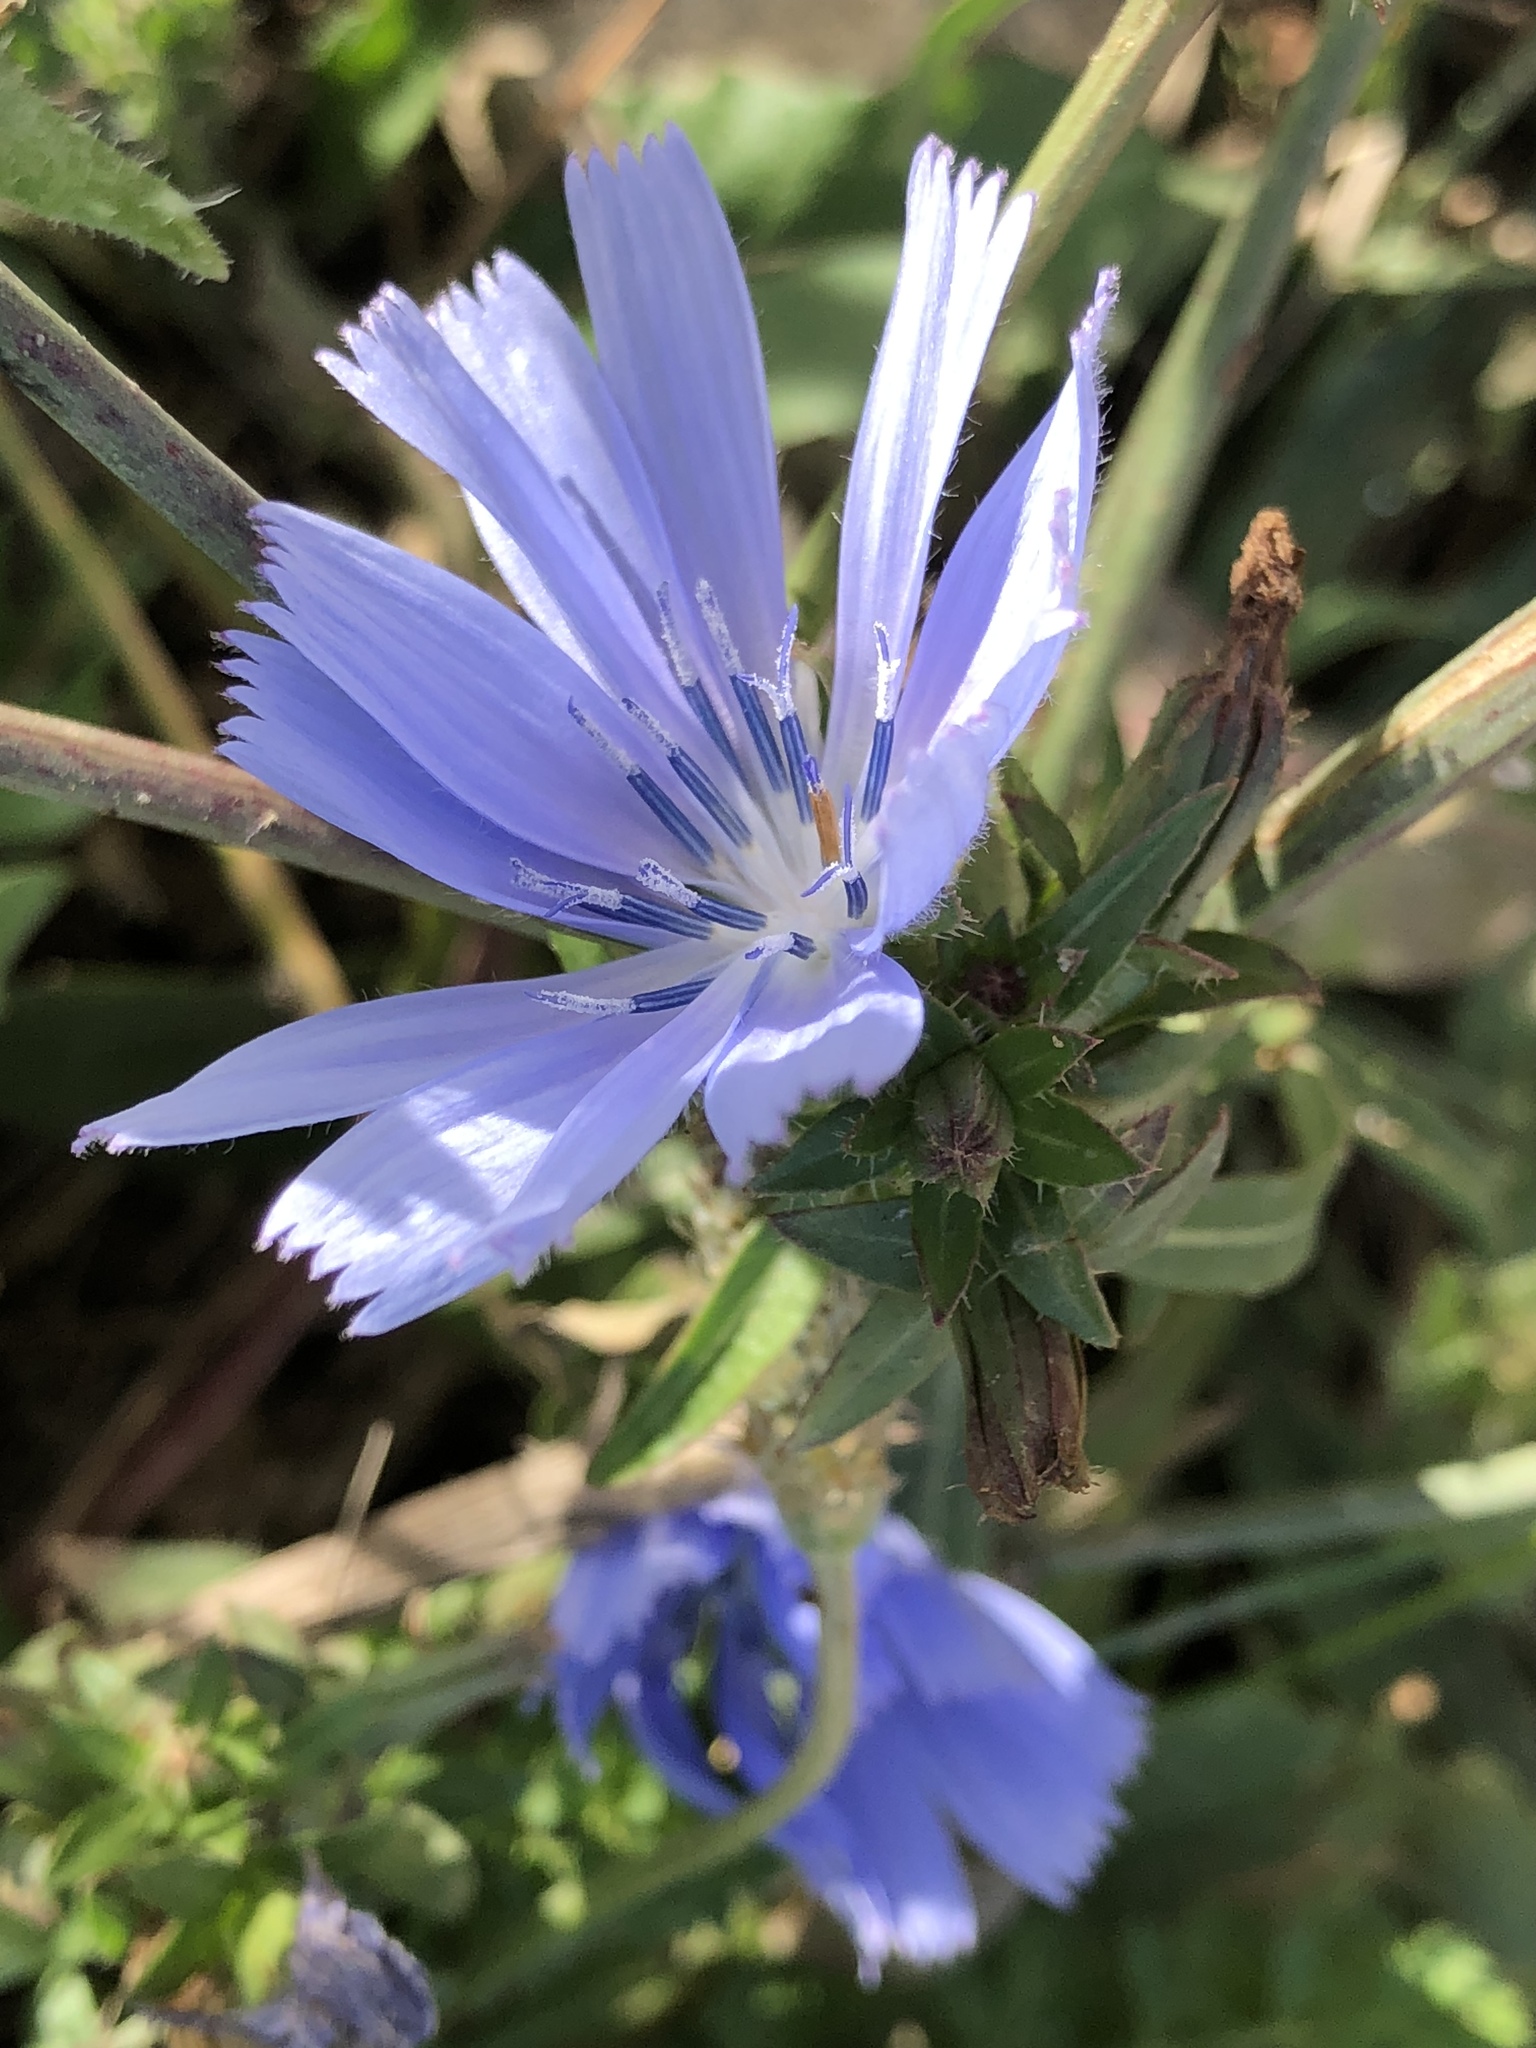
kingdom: Plantae
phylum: Tracheophyta
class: Magnoliopsida
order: Asterales
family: Asteraceae
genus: Cichorium
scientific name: Cichorium intybus
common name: Chicory
